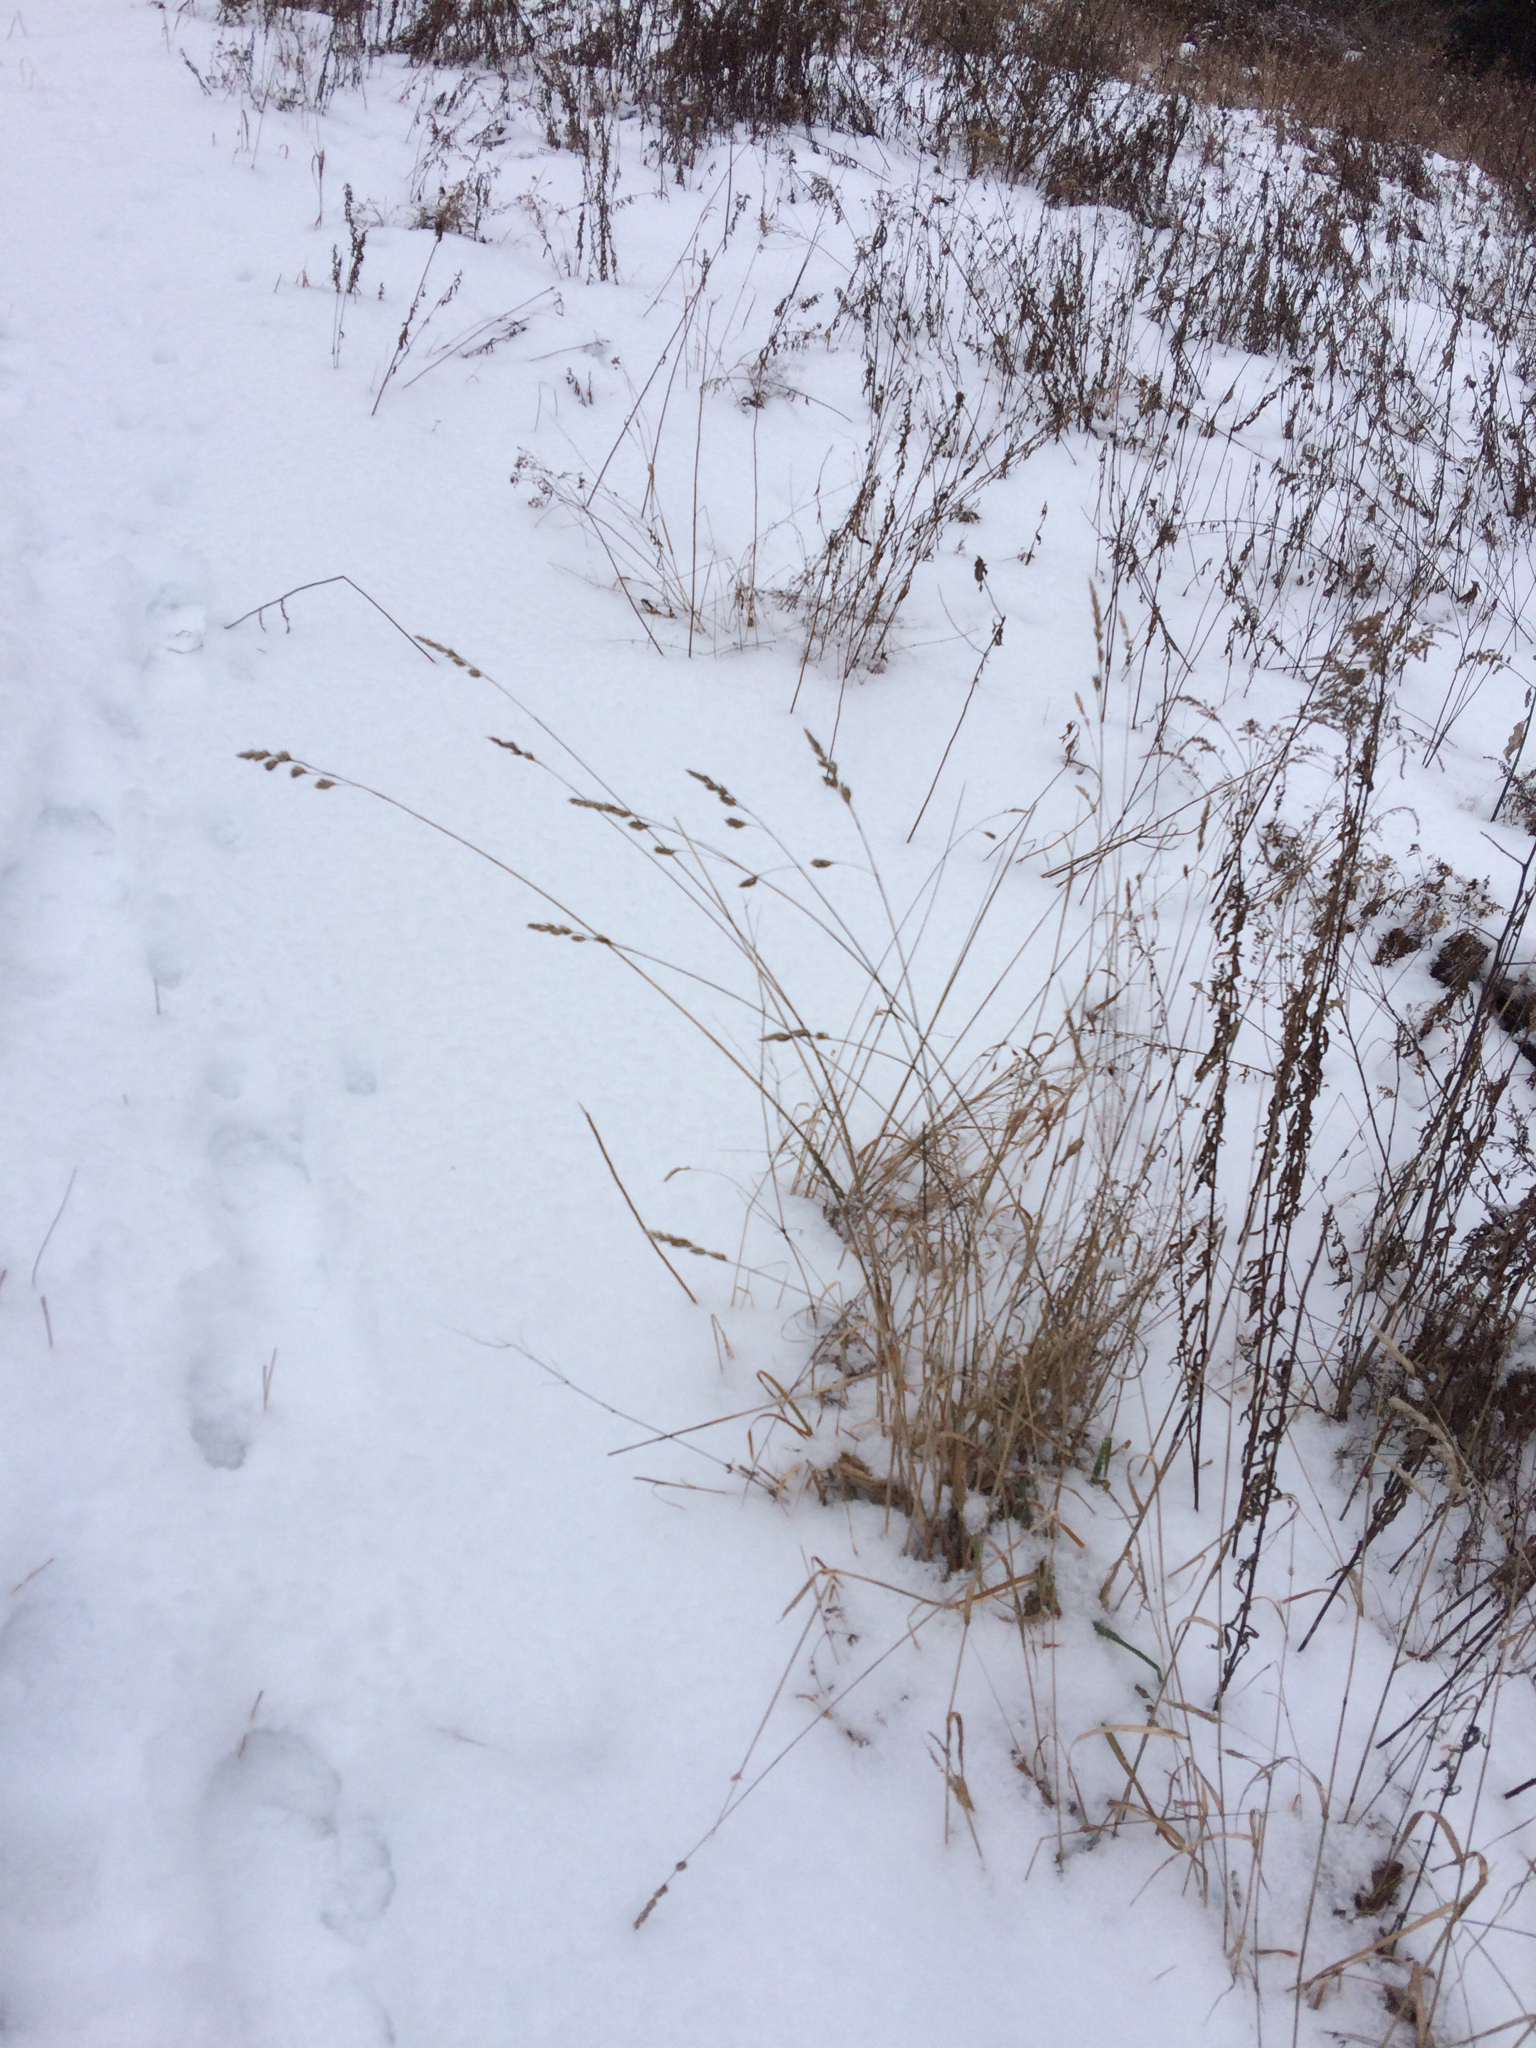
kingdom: Plantae
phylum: Tracheophyta
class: Liliopsida
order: Poales
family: Poaceae
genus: Dactylis
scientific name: Dactylis glomerata
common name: Orchardgrass
